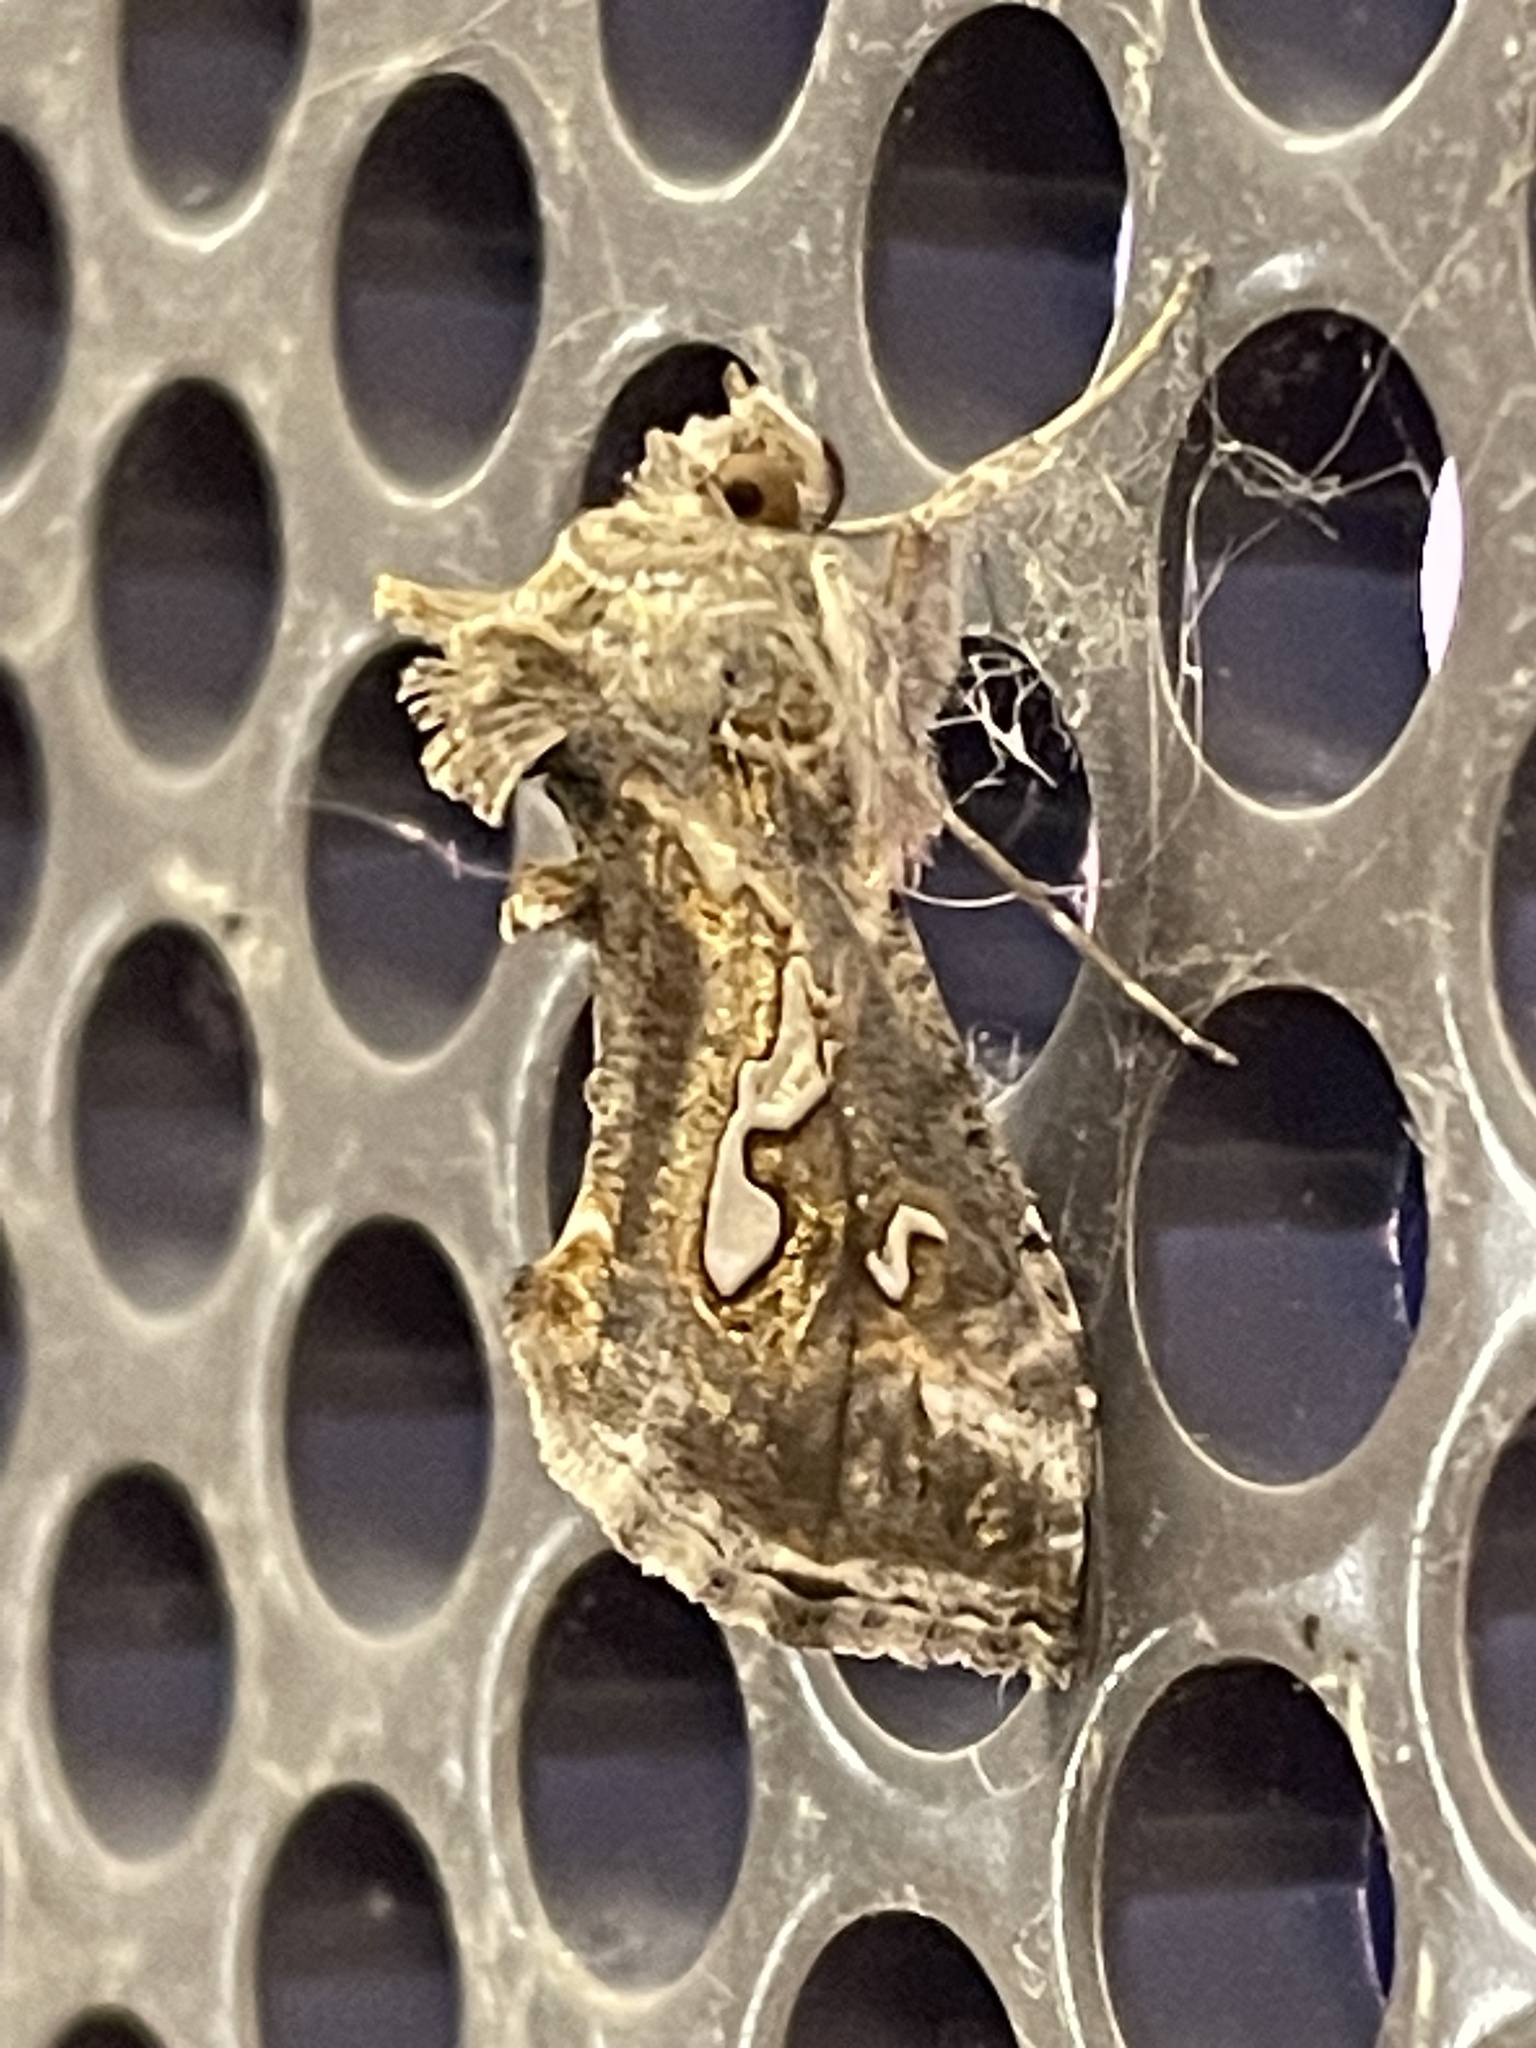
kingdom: Animalia
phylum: Arthropoda
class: Insecta
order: Lepidoptera
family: Noctuidae
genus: Chrysodeixis
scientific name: Chrysodeixis argentifera
